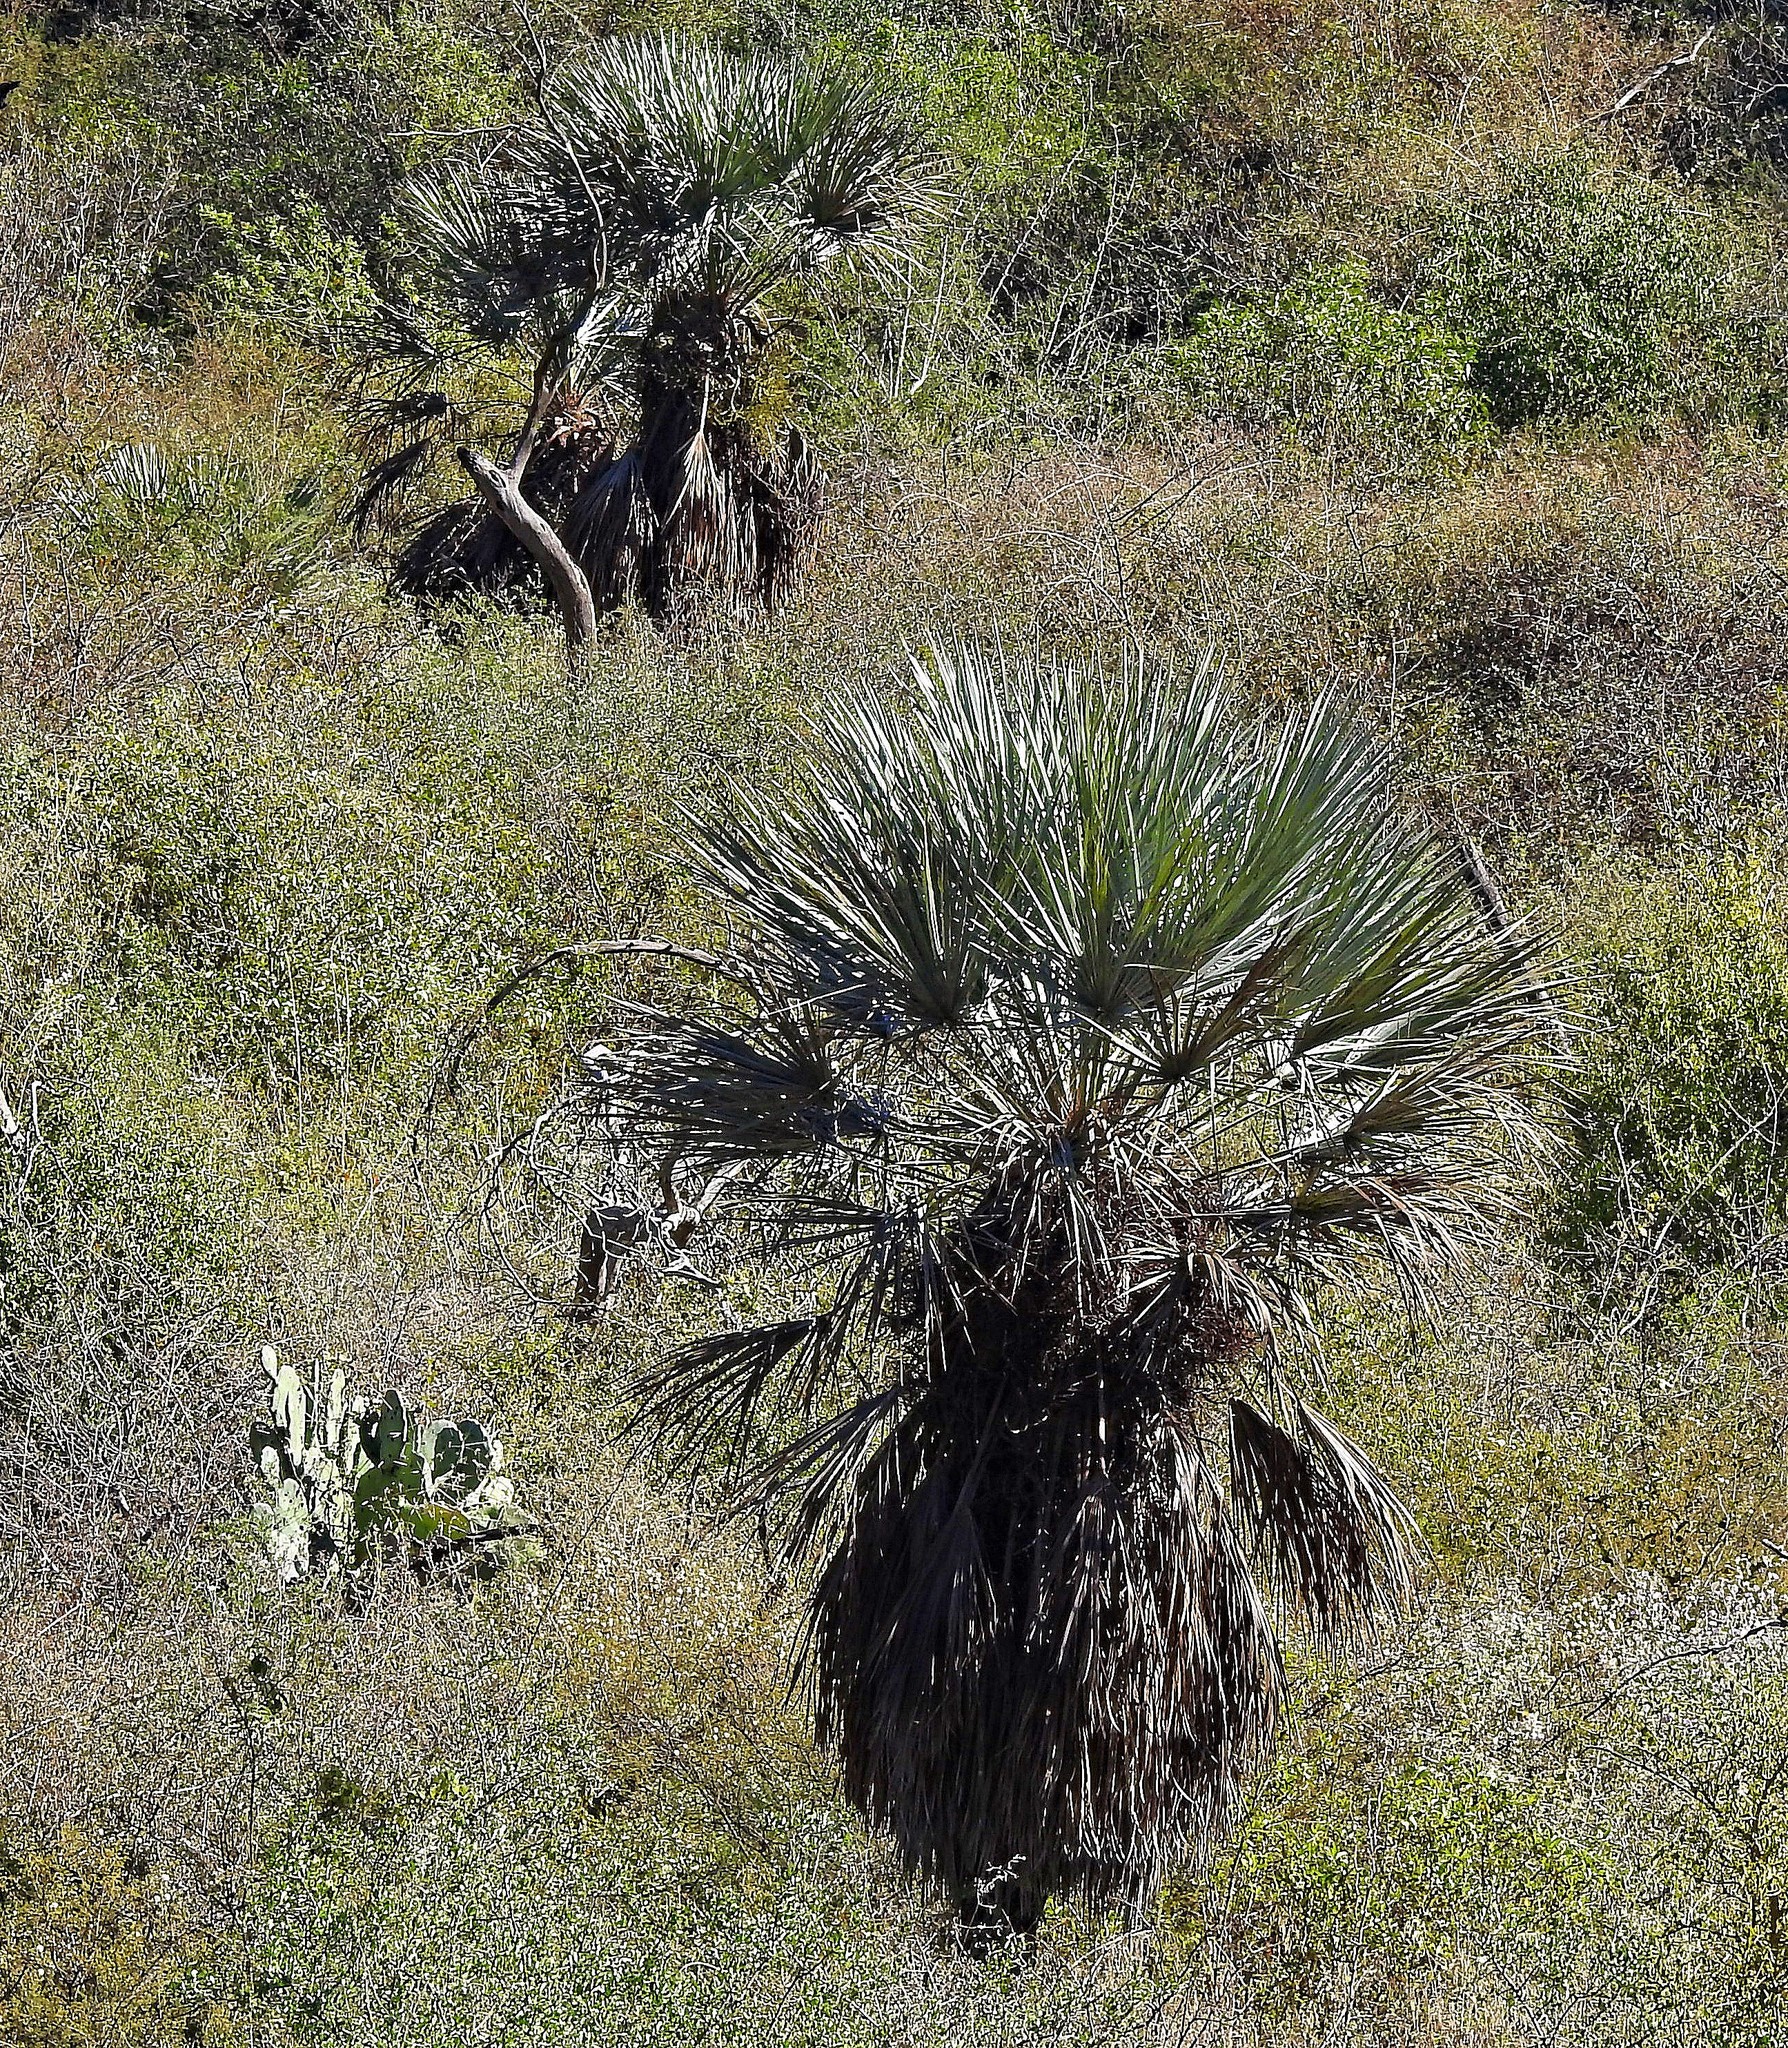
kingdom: Plantae
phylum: Tracheophyta
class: Liliopsida
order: Arecales
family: Arecaceae
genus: Trithrinax
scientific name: Trithrinax campestris
